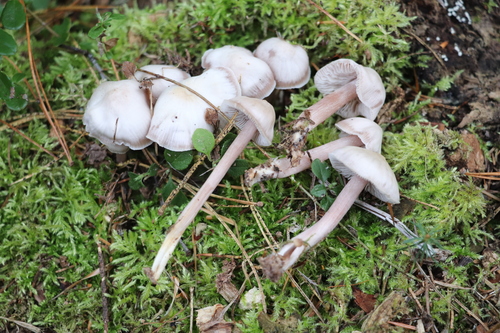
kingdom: Fungi
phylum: Basidiomycota
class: Agaricomycetes
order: Agaricales
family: Mycenaceae
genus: Mycena
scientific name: Mycena pura
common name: Lilac bonnet
